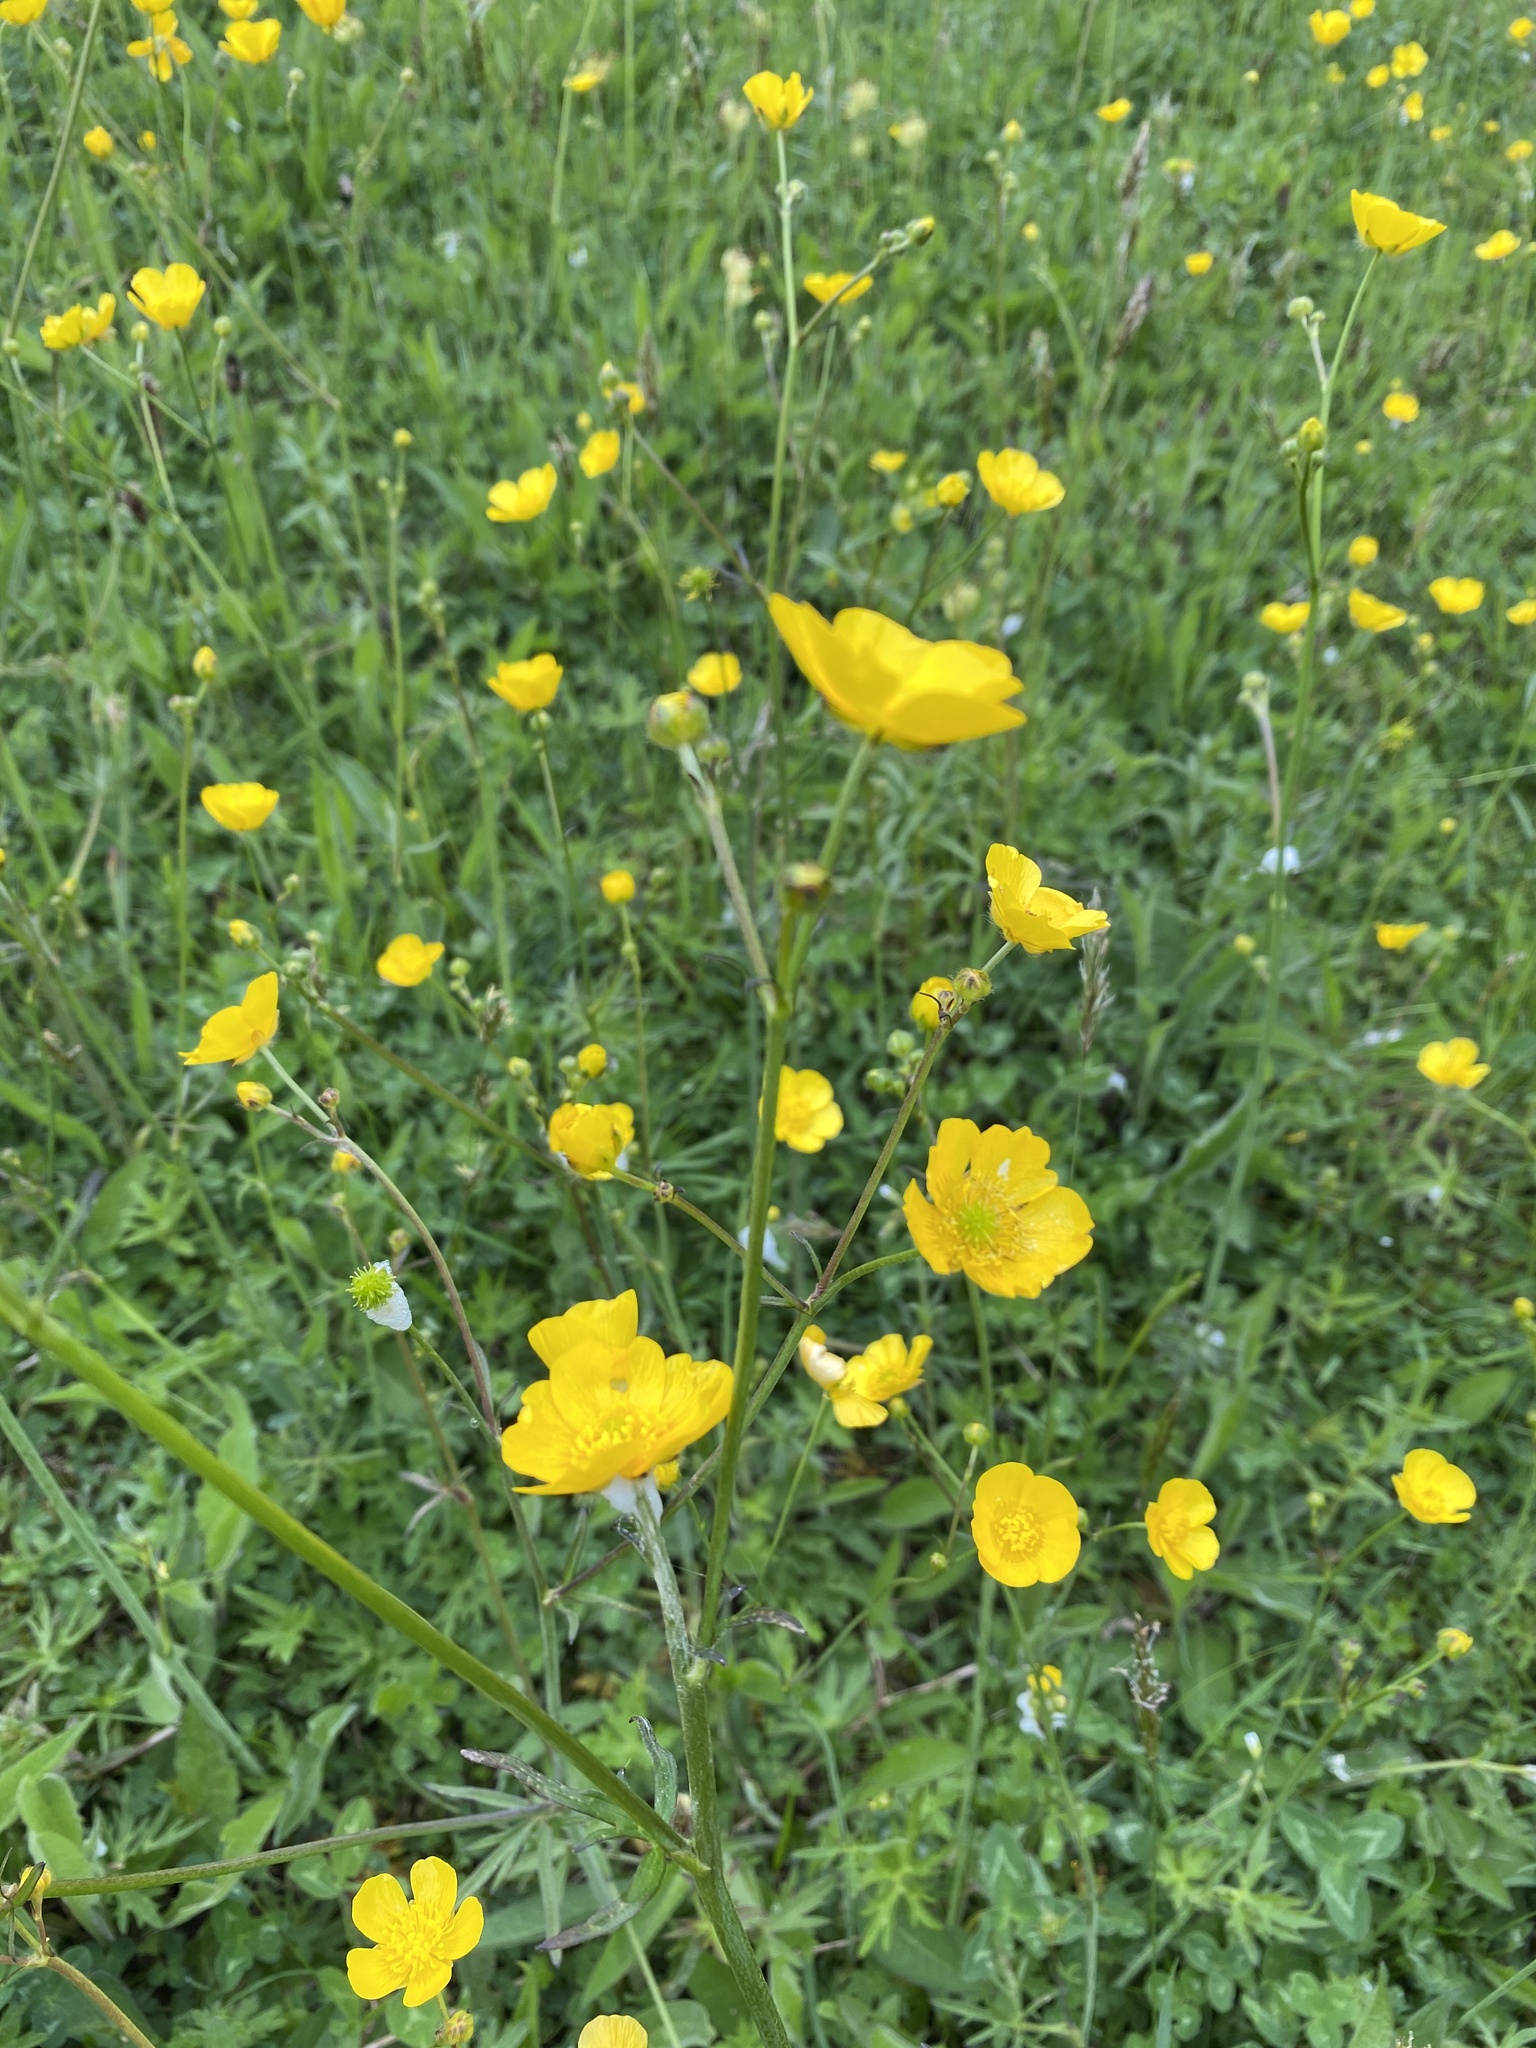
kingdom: Plantae
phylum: Tracheophyta
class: Magnoliopsida
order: Ranunculales
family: Ranunculaceae
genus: Ranunculus
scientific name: Ranunculus acris
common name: Meadow buttercup
